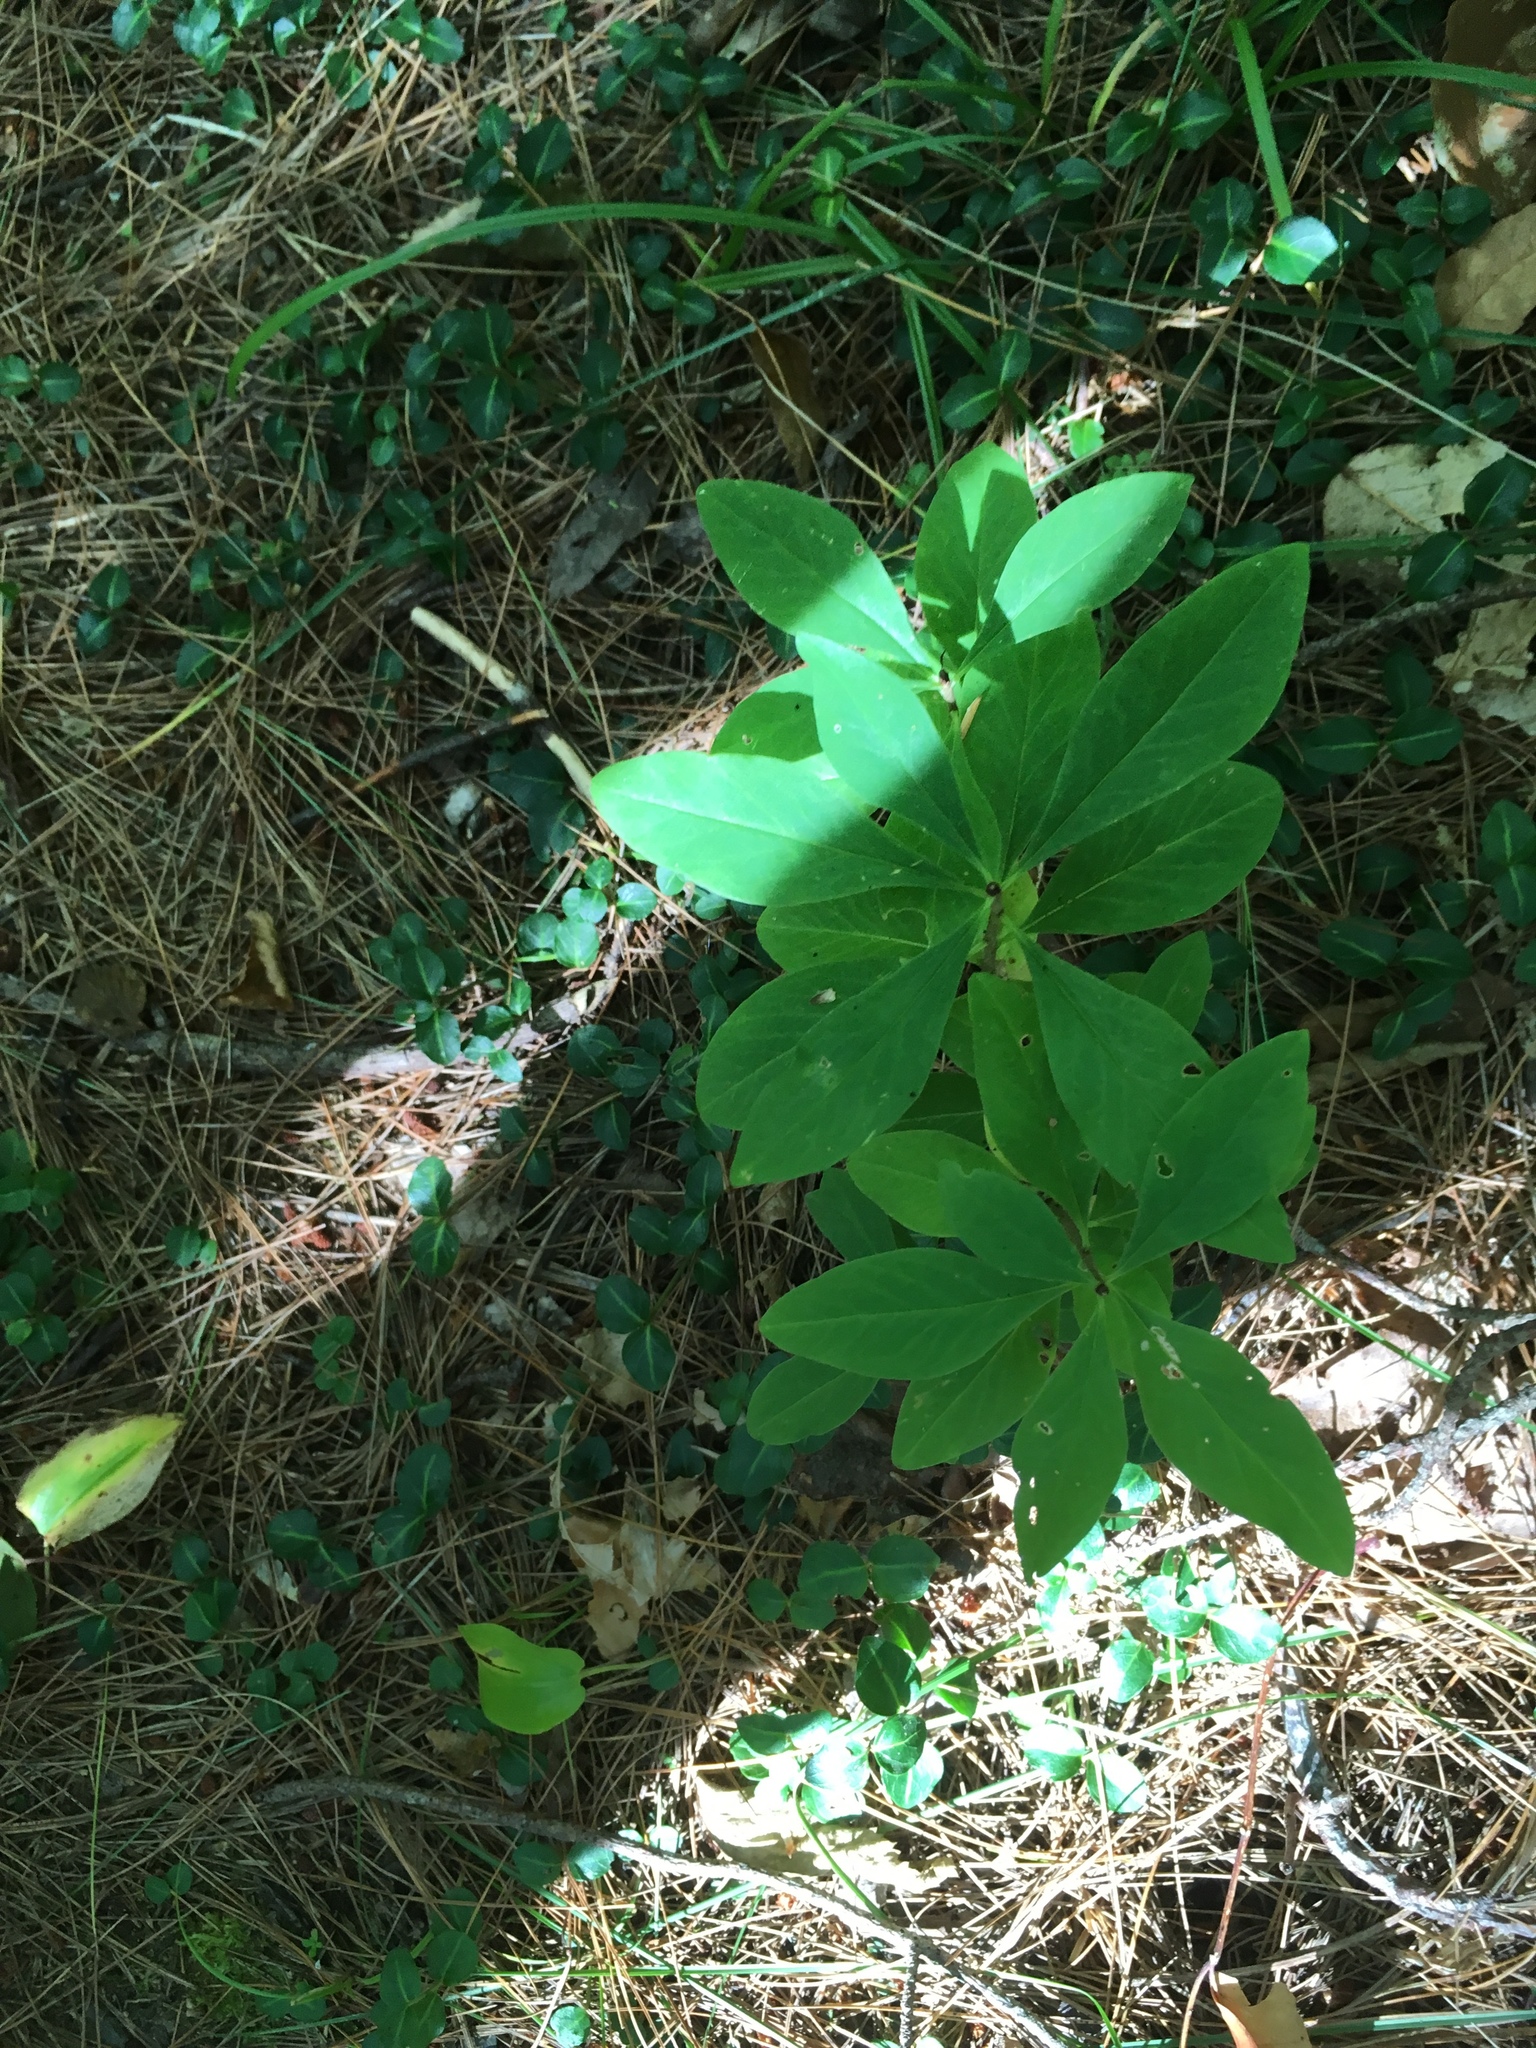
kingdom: Plantae
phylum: Tracheophyta
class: Magnoliopsida
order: Malvales
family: Thymelaeaceae
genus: Daphne
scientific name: Daphne mezereum
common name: Mezereon
